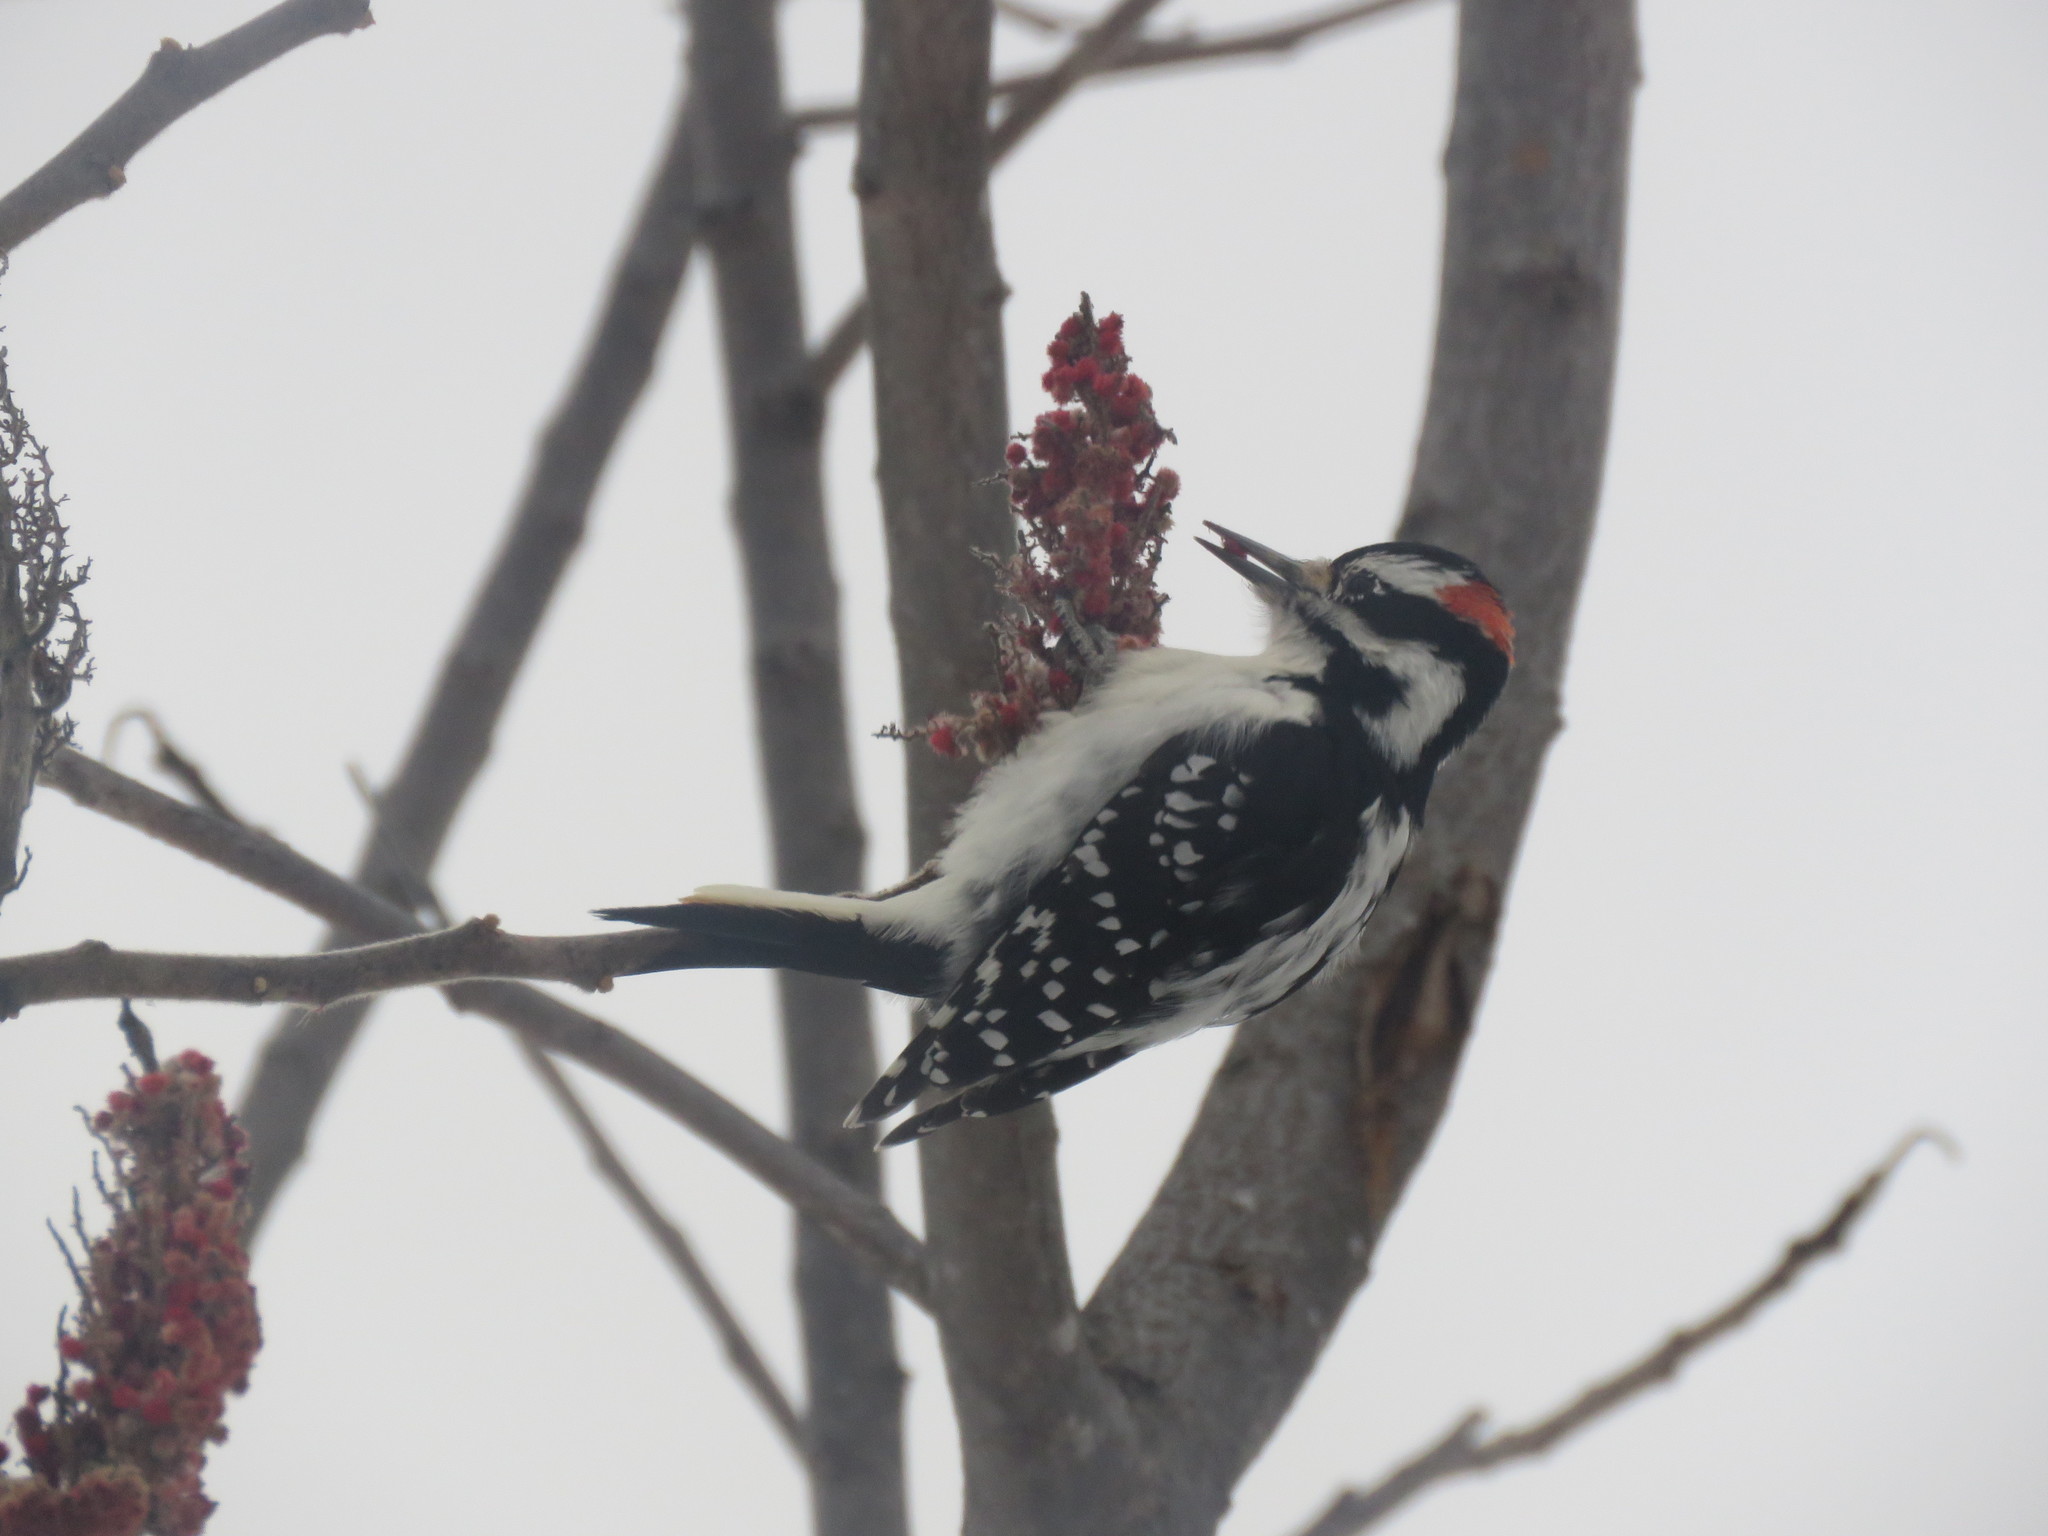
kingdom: Animalia
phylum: Chordata
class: Aves
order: Piciformes
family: Picidae
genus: Leuconotopicus
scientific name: Leuconotopicus villosus
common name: Hairy woodpecker
